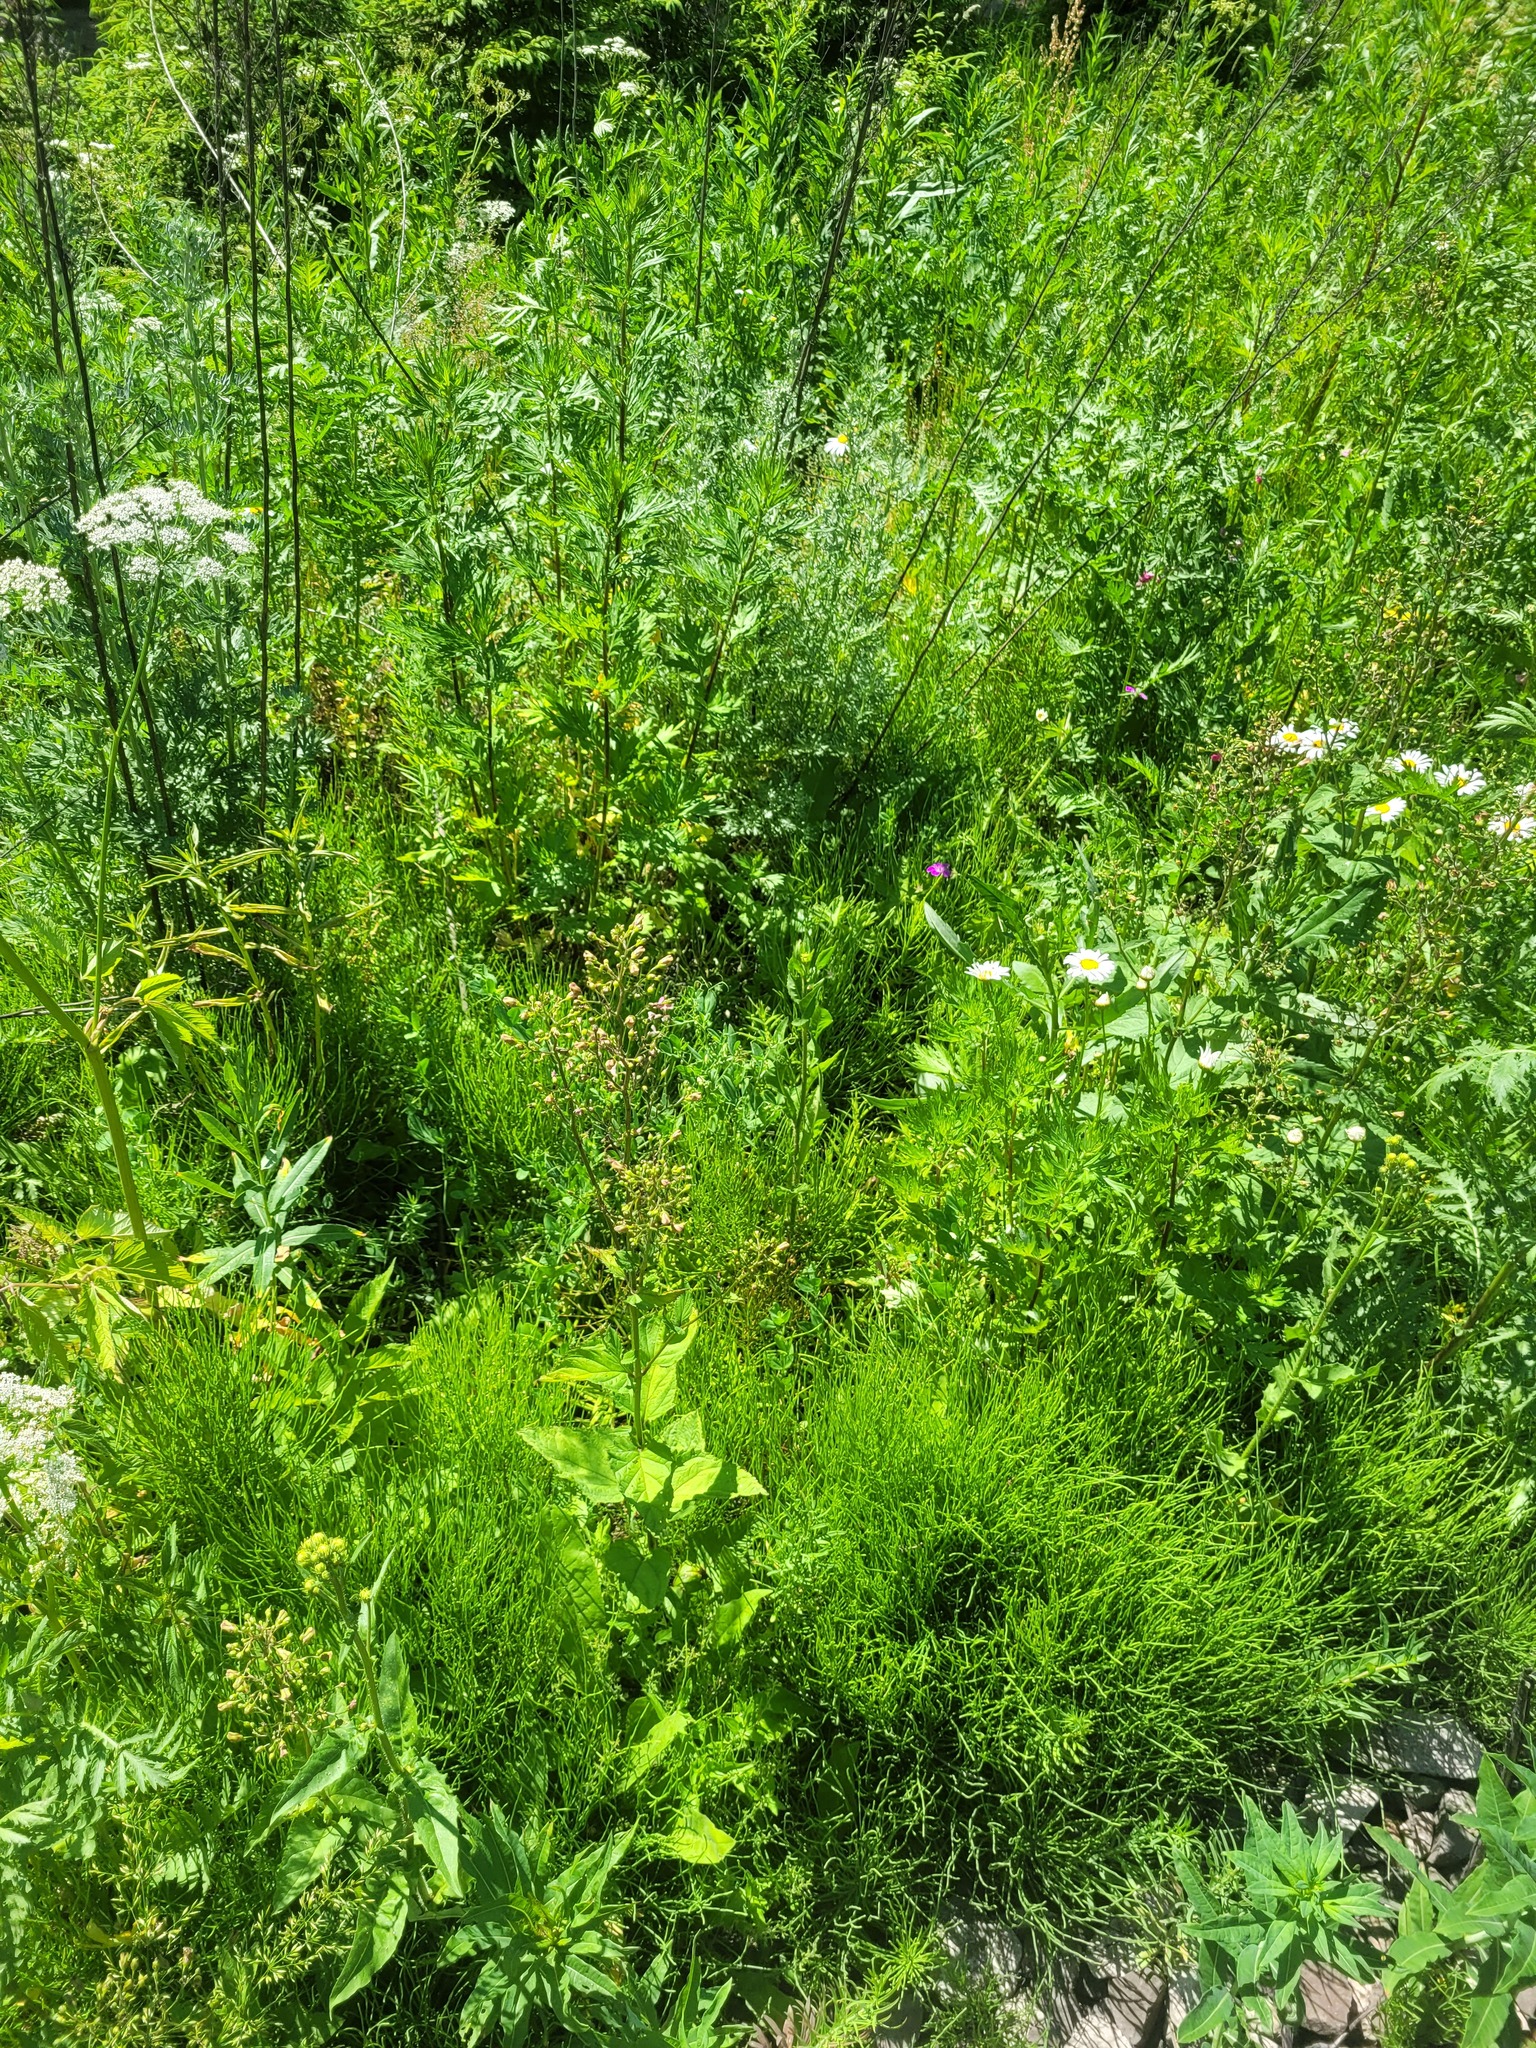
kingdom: Plantae
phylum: Tracheophyta
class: Magnoliopsida
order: Lamiales
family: Scrophulariaceae
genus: Scrophularia
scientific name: Scrophularia nodosa
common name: Common figwort
